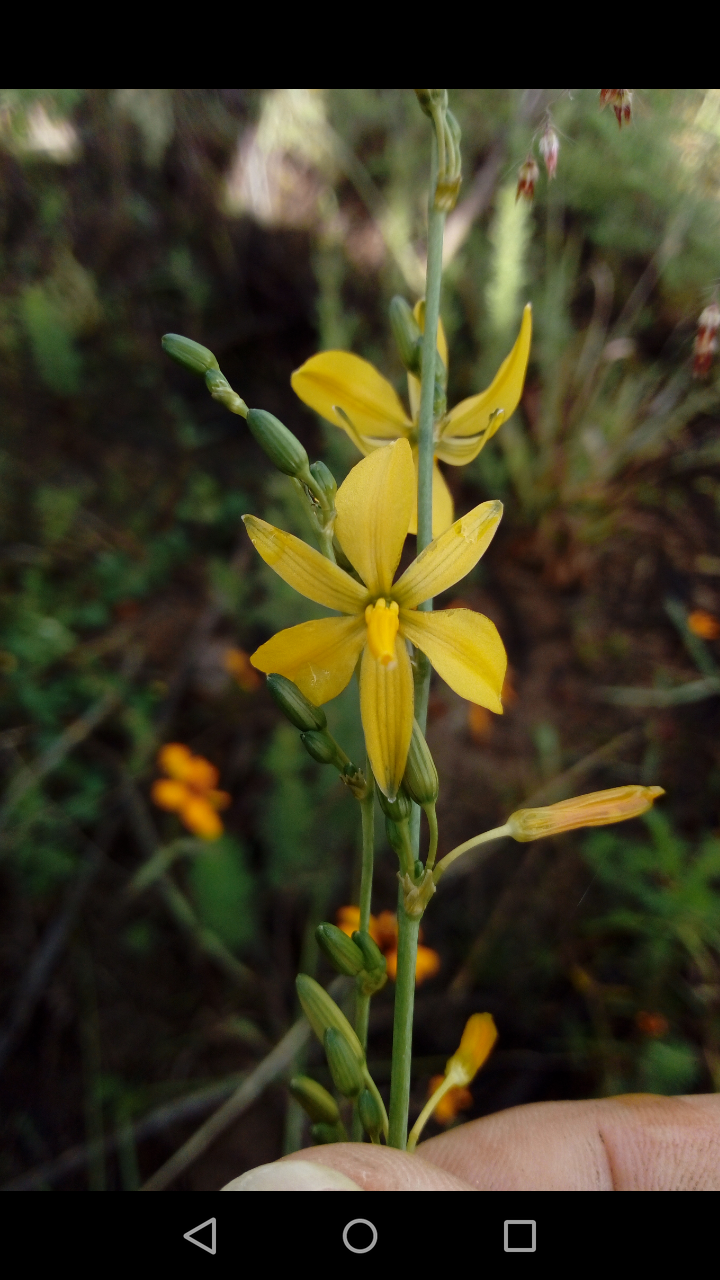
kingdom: Plantae
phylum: Tracheophyta
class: Liliopsida
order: Asparagales
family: Asparagaceae
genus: Echeandia
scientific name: Echeandia flexuosa
